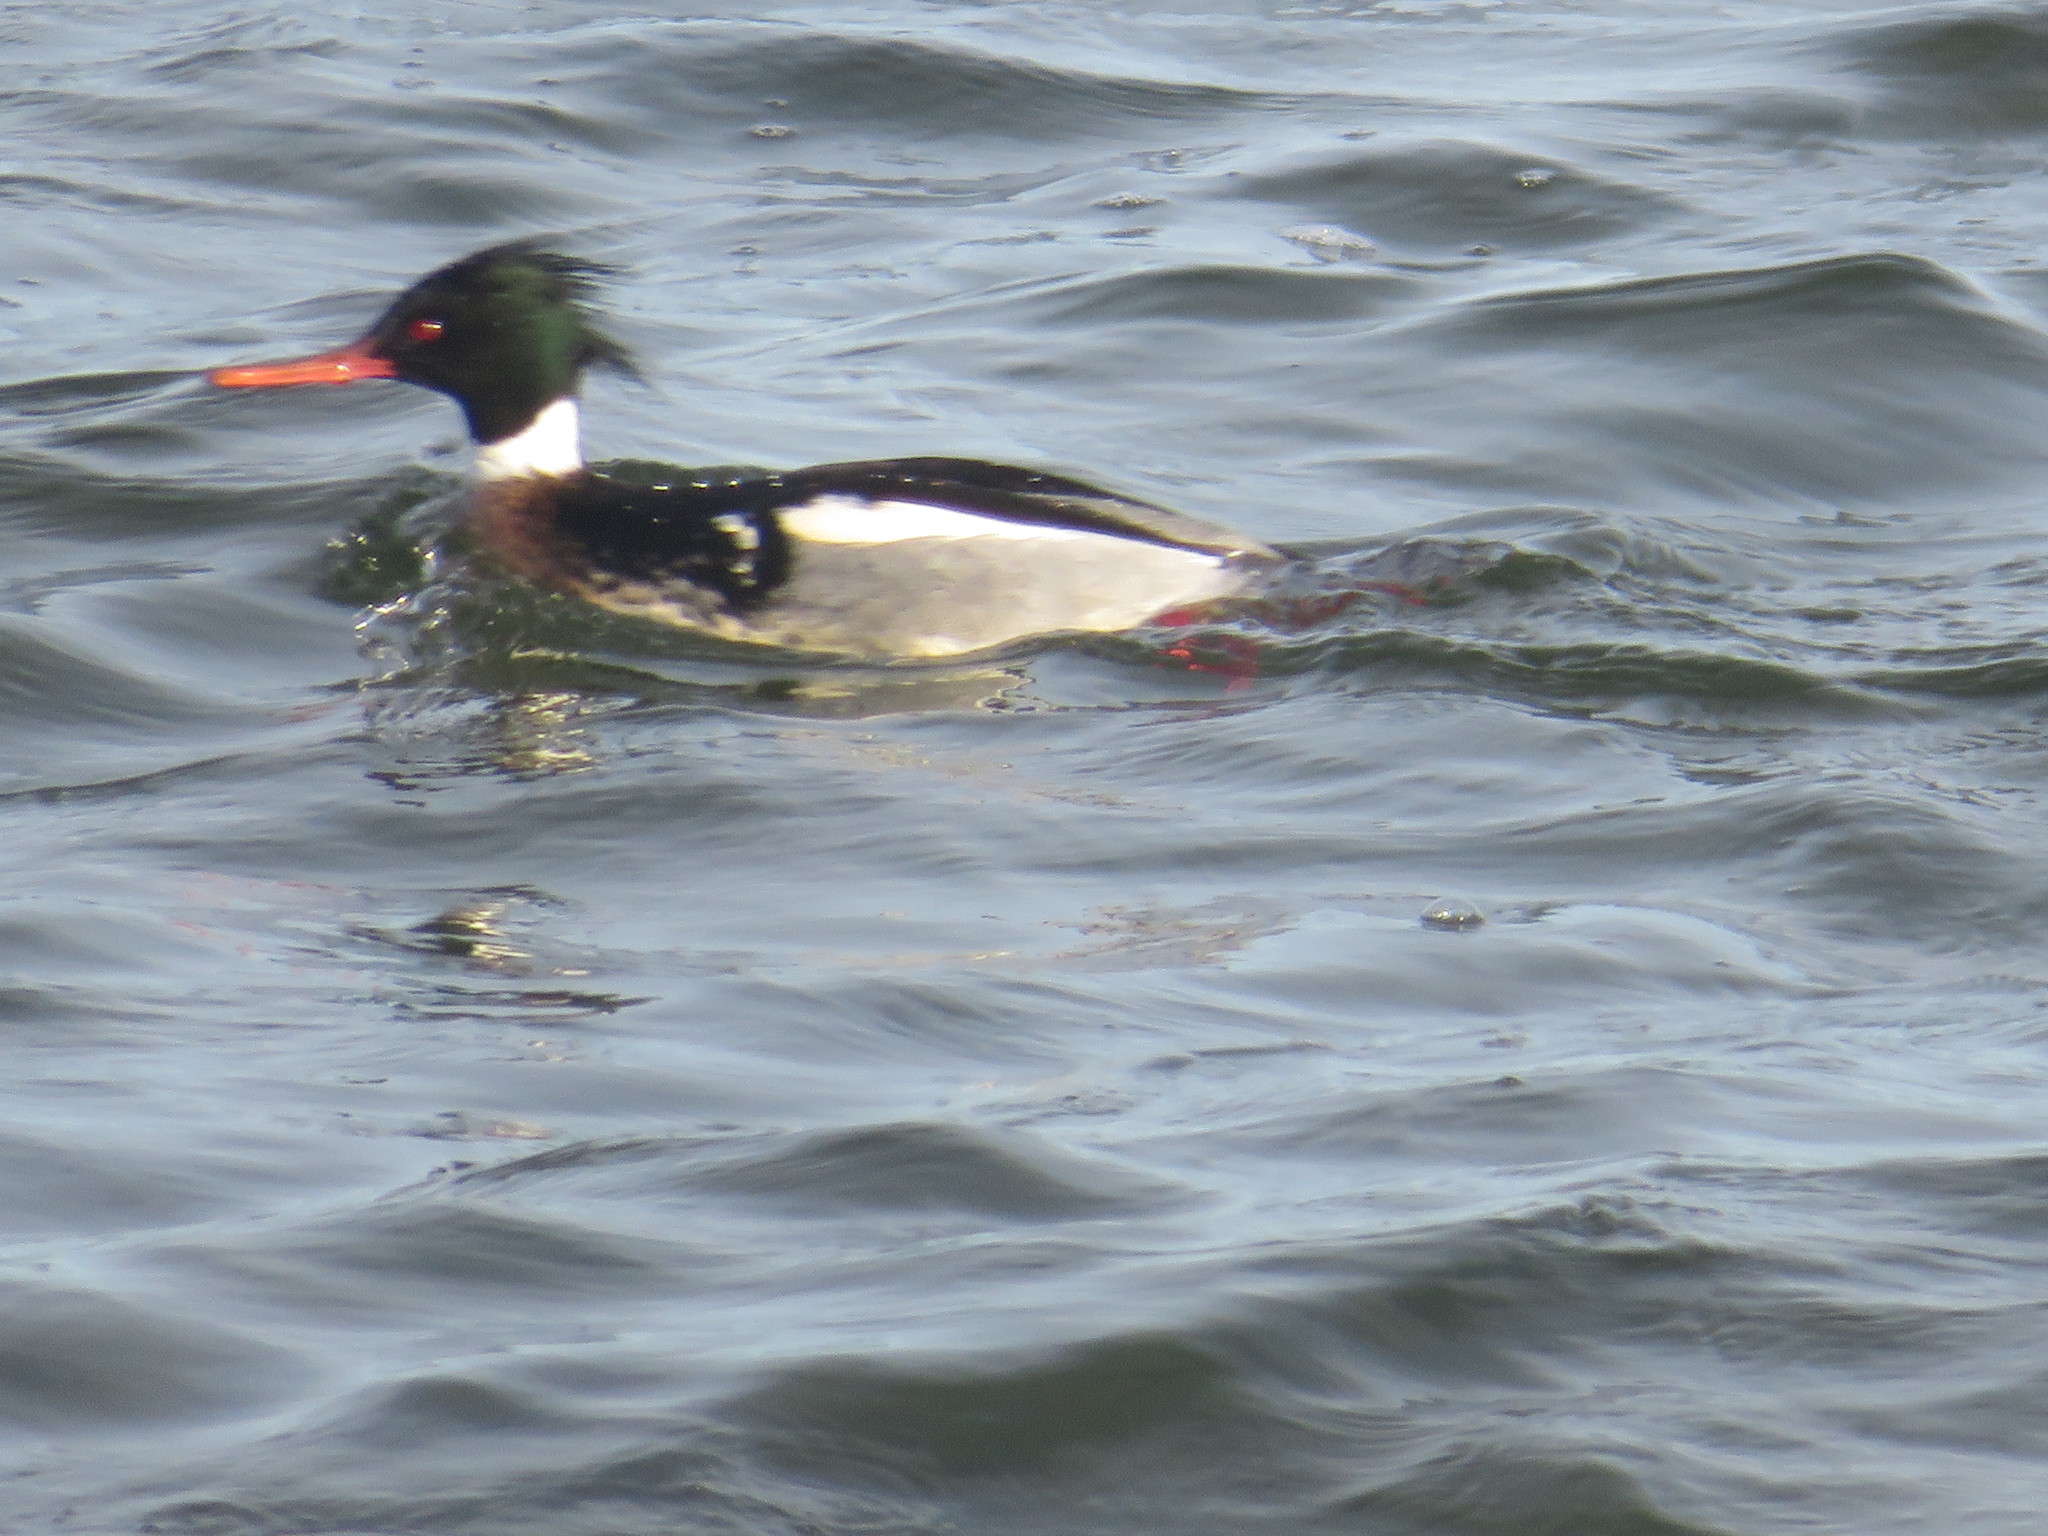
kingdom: Animalia
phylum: Chordata
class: Aves
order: Anseriformes
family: Anatidae
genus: Mergus
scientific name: Mergus serrator
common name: Red-breasted merganser
